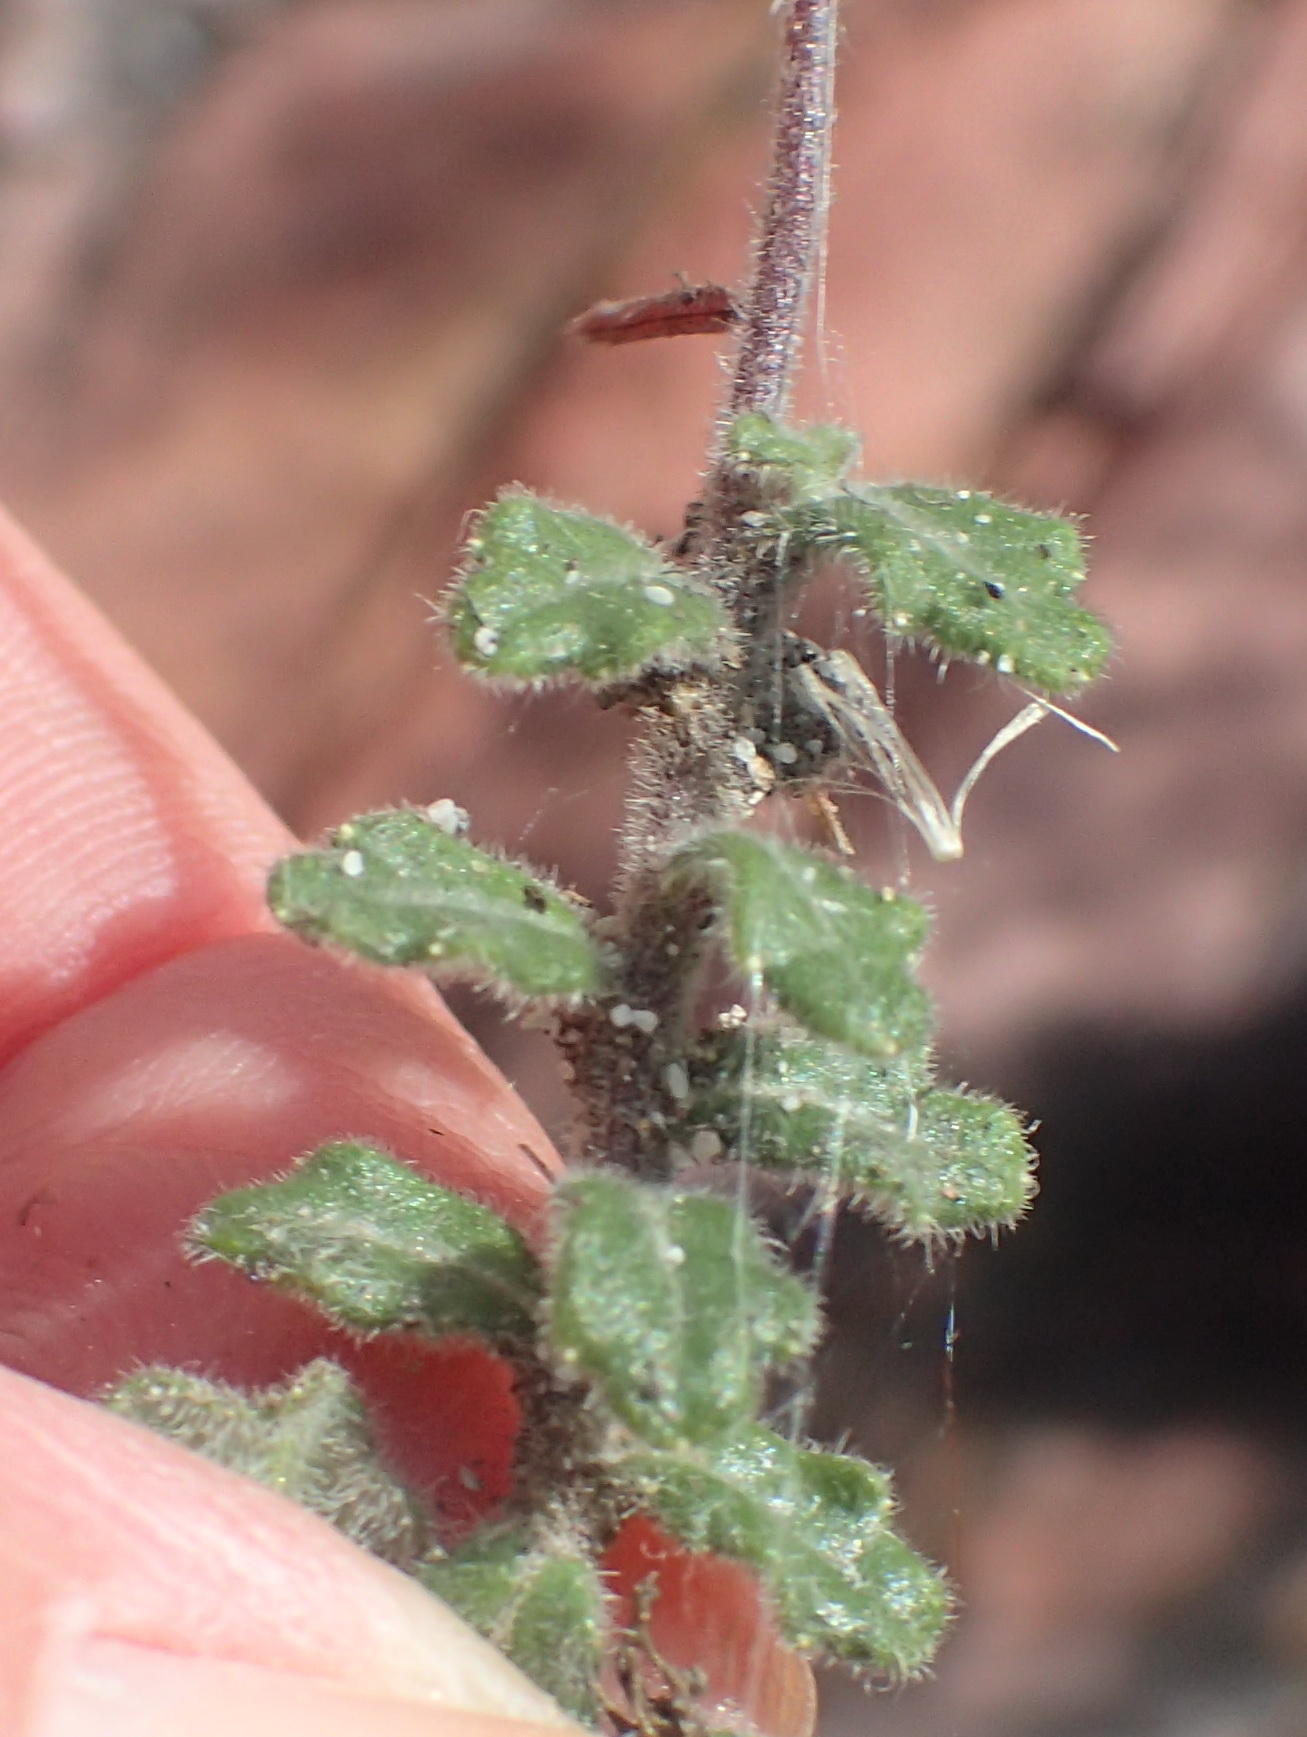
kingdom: Plantae
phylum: Tracheophyta
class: Magnoliopsida
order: Asterales
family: Campanulaceae
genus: Lobelia
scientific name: Lobelia dichroma
